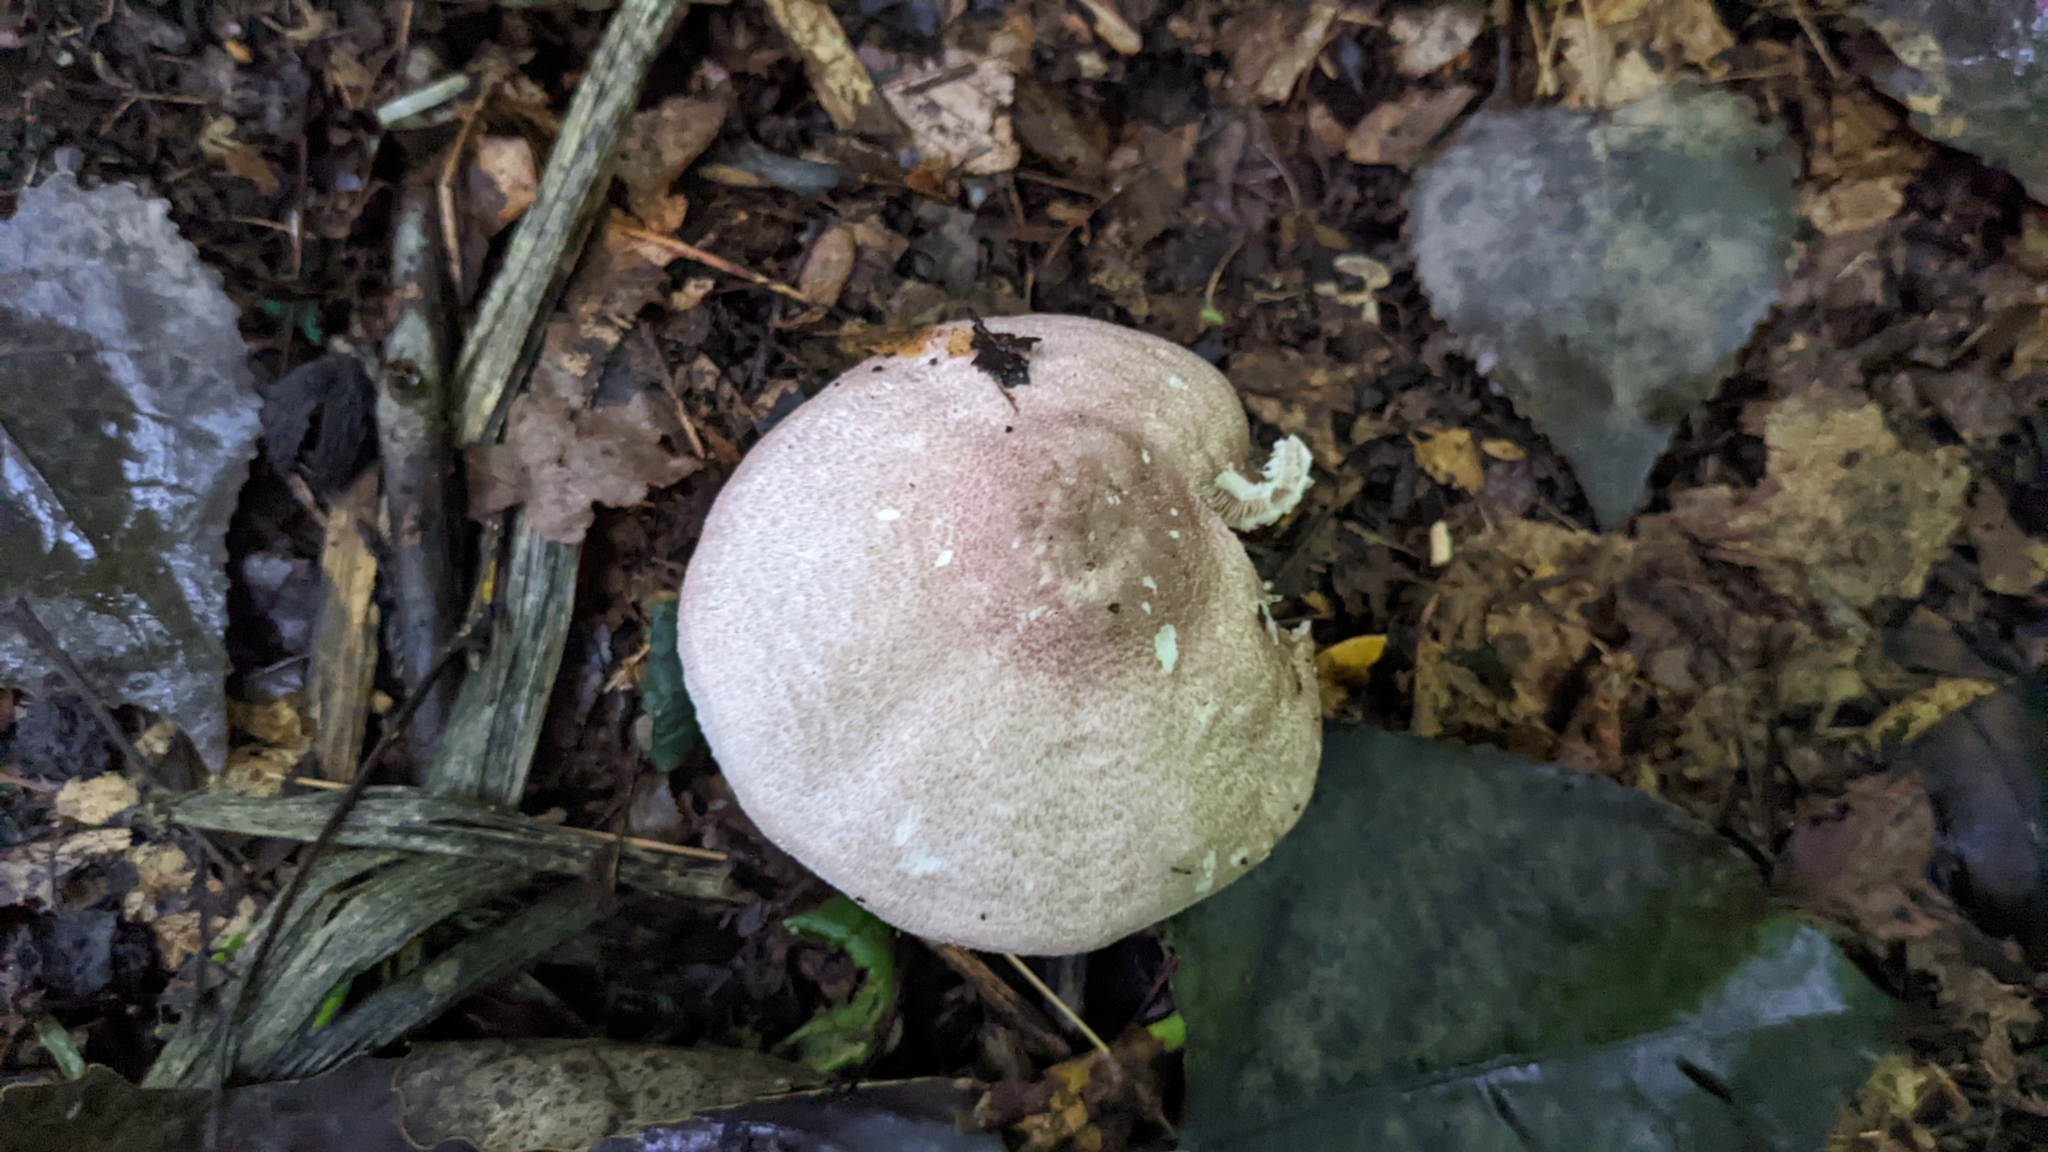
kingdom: Fungi
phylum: Basidiomycota
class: Agaricomycetes
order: Agaricales
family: Agaricaceae
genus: Agaricus
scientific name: Agaricus subrufescens
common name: Almond mushroom
